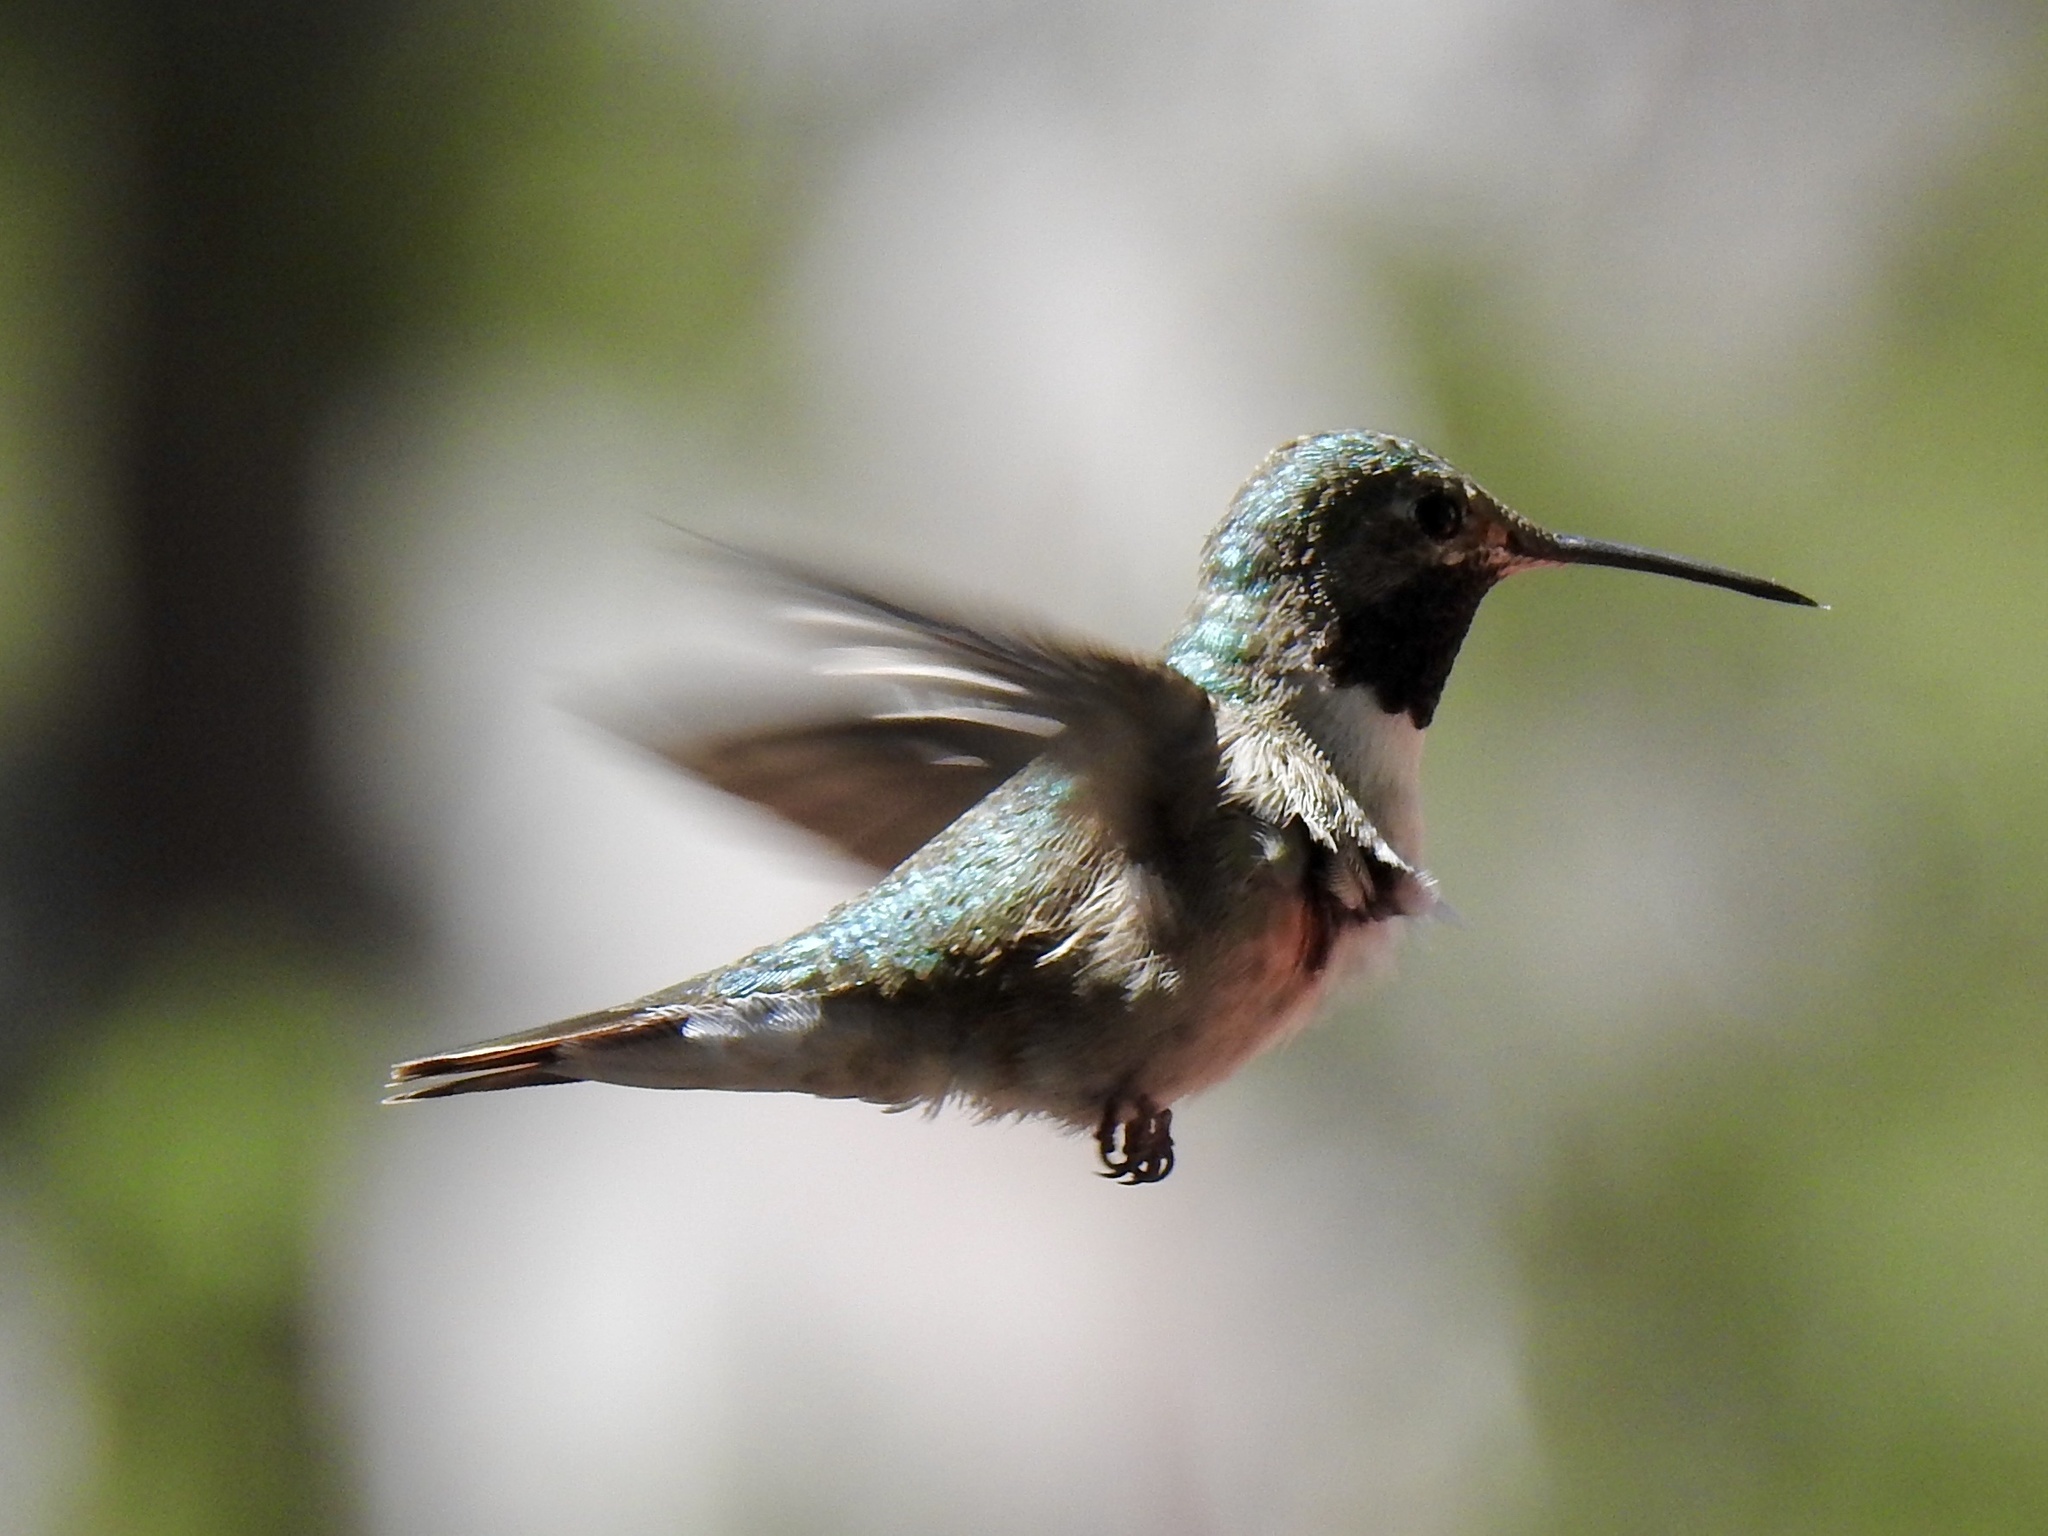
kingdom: Animalia
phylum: Chordata
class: Aves
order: Apodiformes
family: Trochilidae
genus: Selasphorus
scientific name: Selasphorus platycercus
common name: Broad-tailed hummingbird
